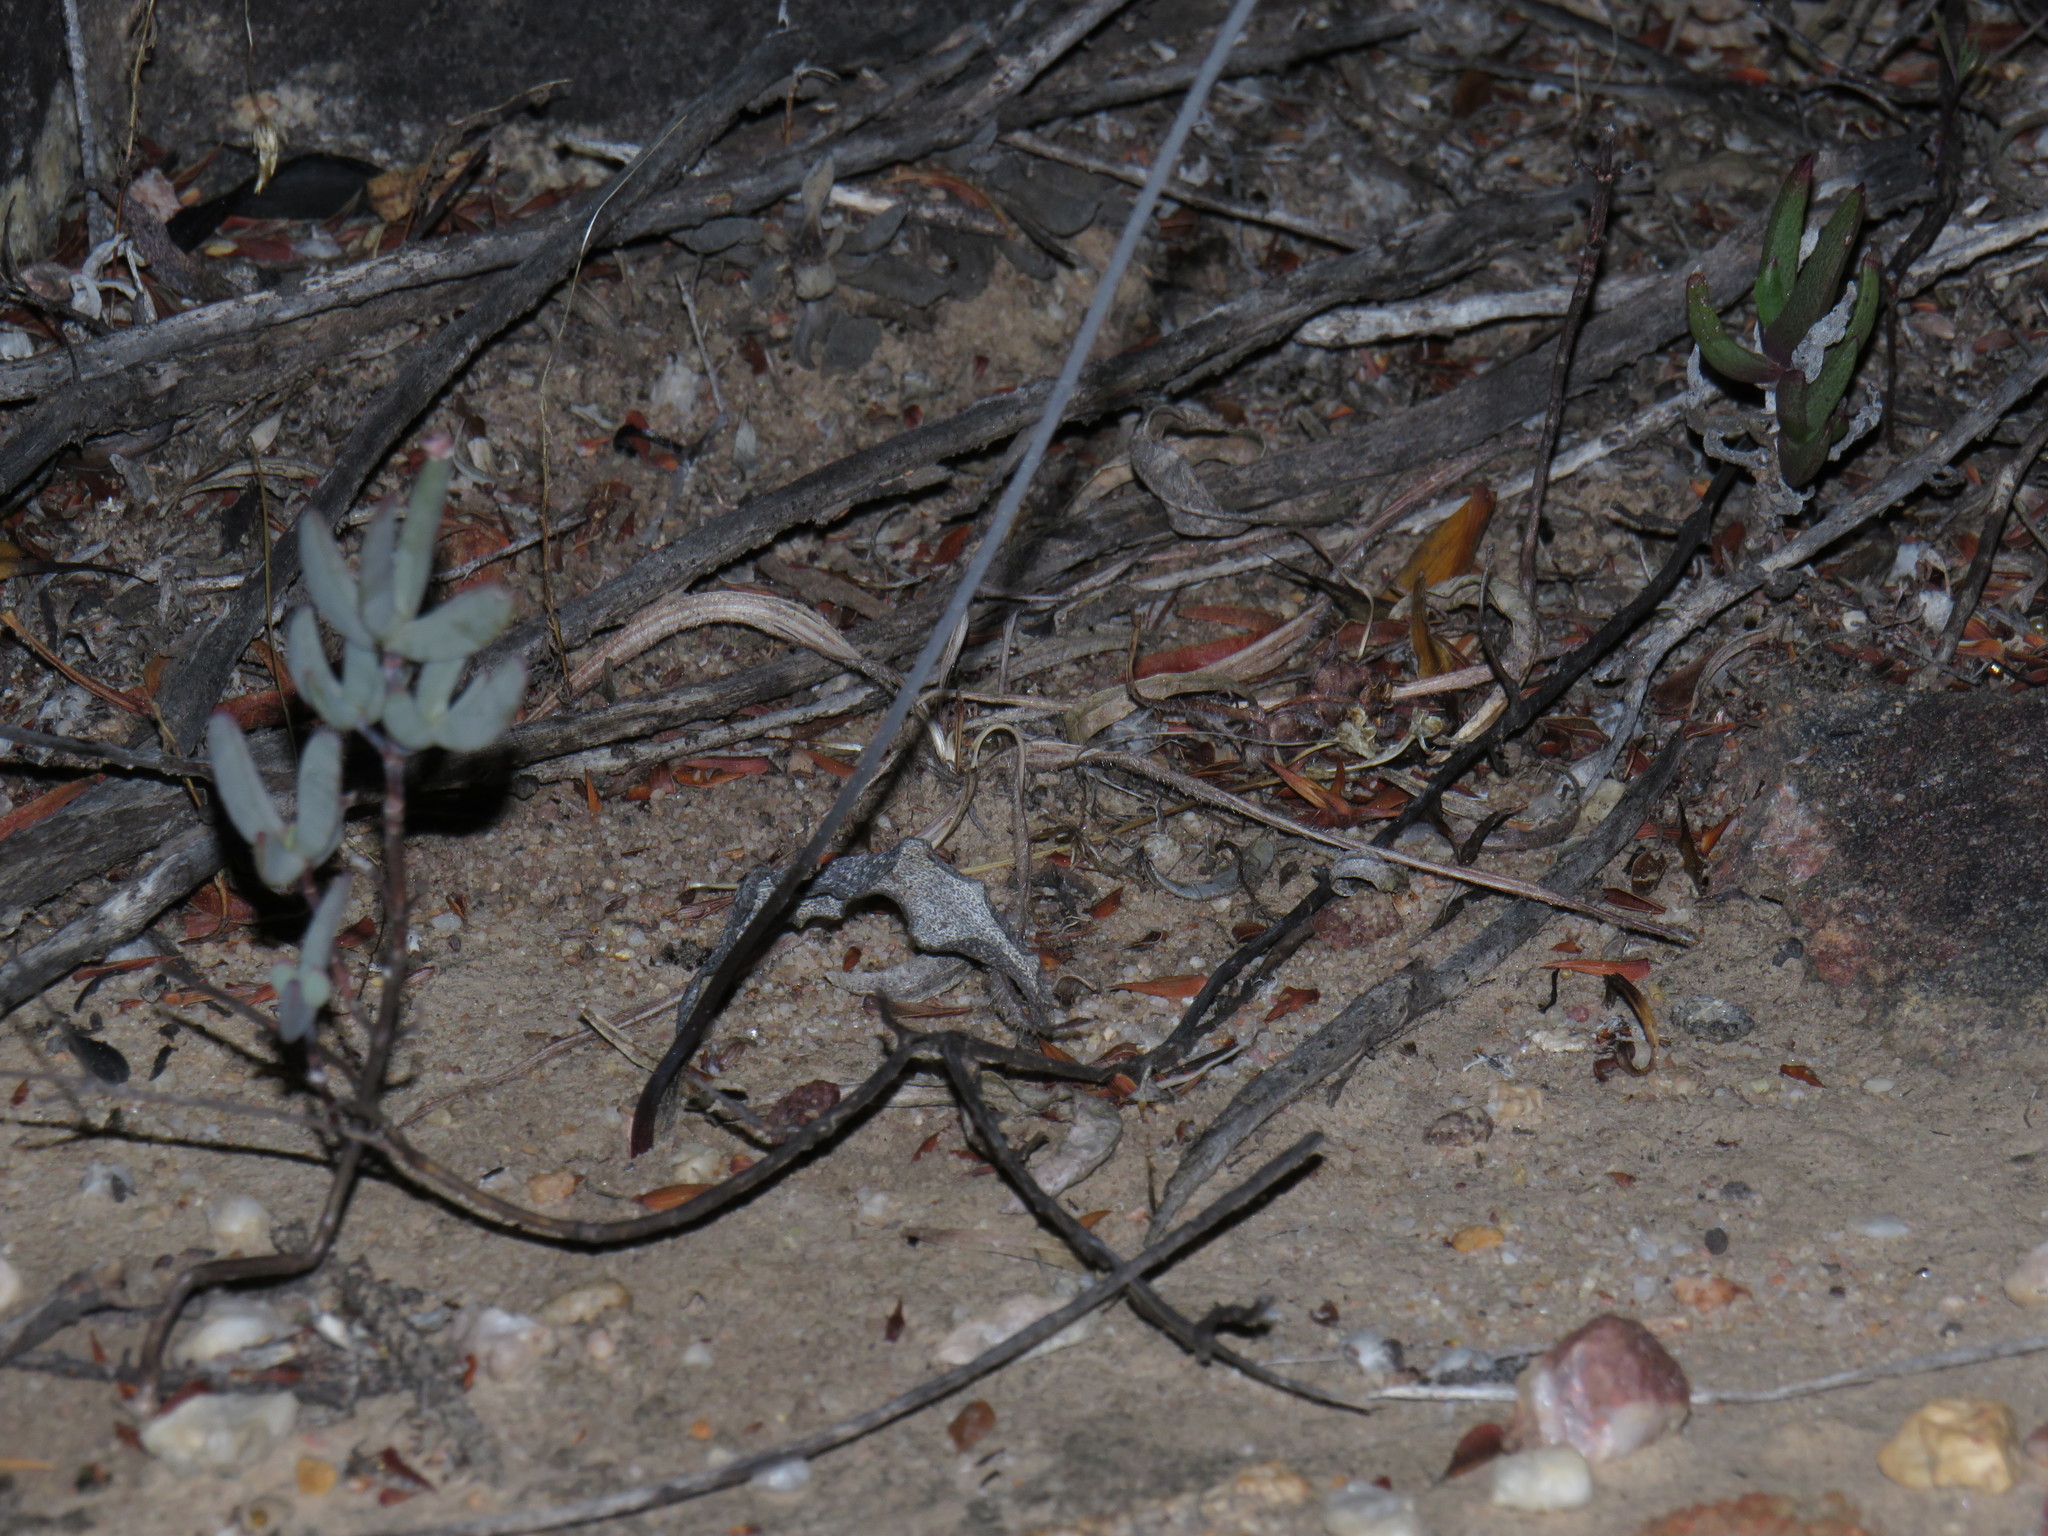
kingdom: Plantae
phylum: Tracheophyta
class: Liliopsida
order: Asparagales
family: Asparagaceae
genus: Eriospermum
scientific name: Eriospermum lanceifolium
